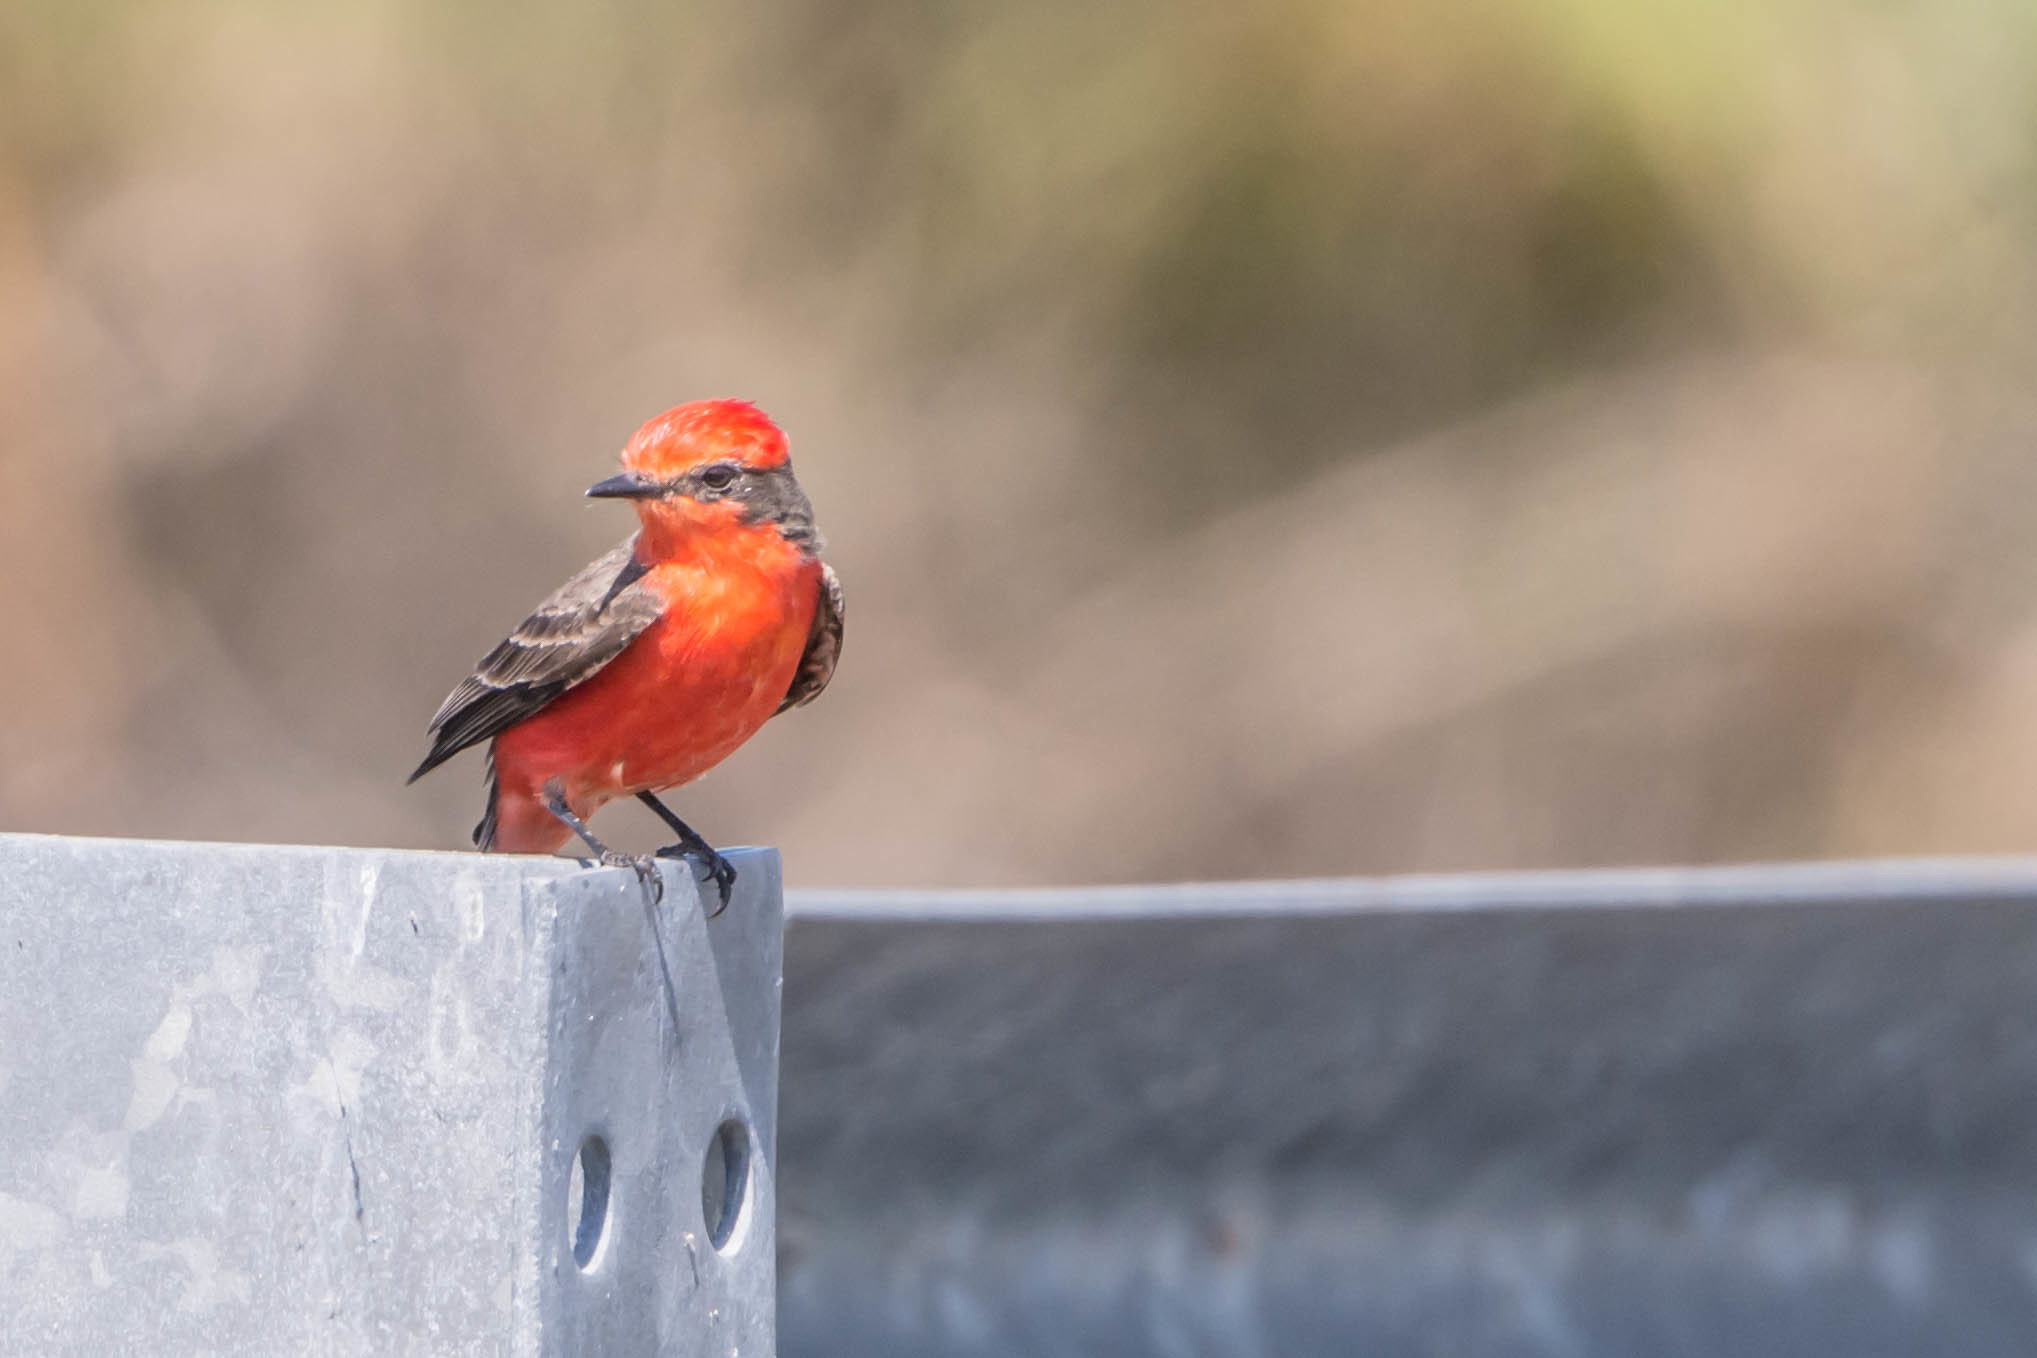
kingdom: Animalia
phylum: Chordata
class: Aves
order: Passeriformes
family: Tyrannidae
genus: Pyrocephalus
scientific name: Pyrocephalus rubinus
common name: Vermilion flycatcher
